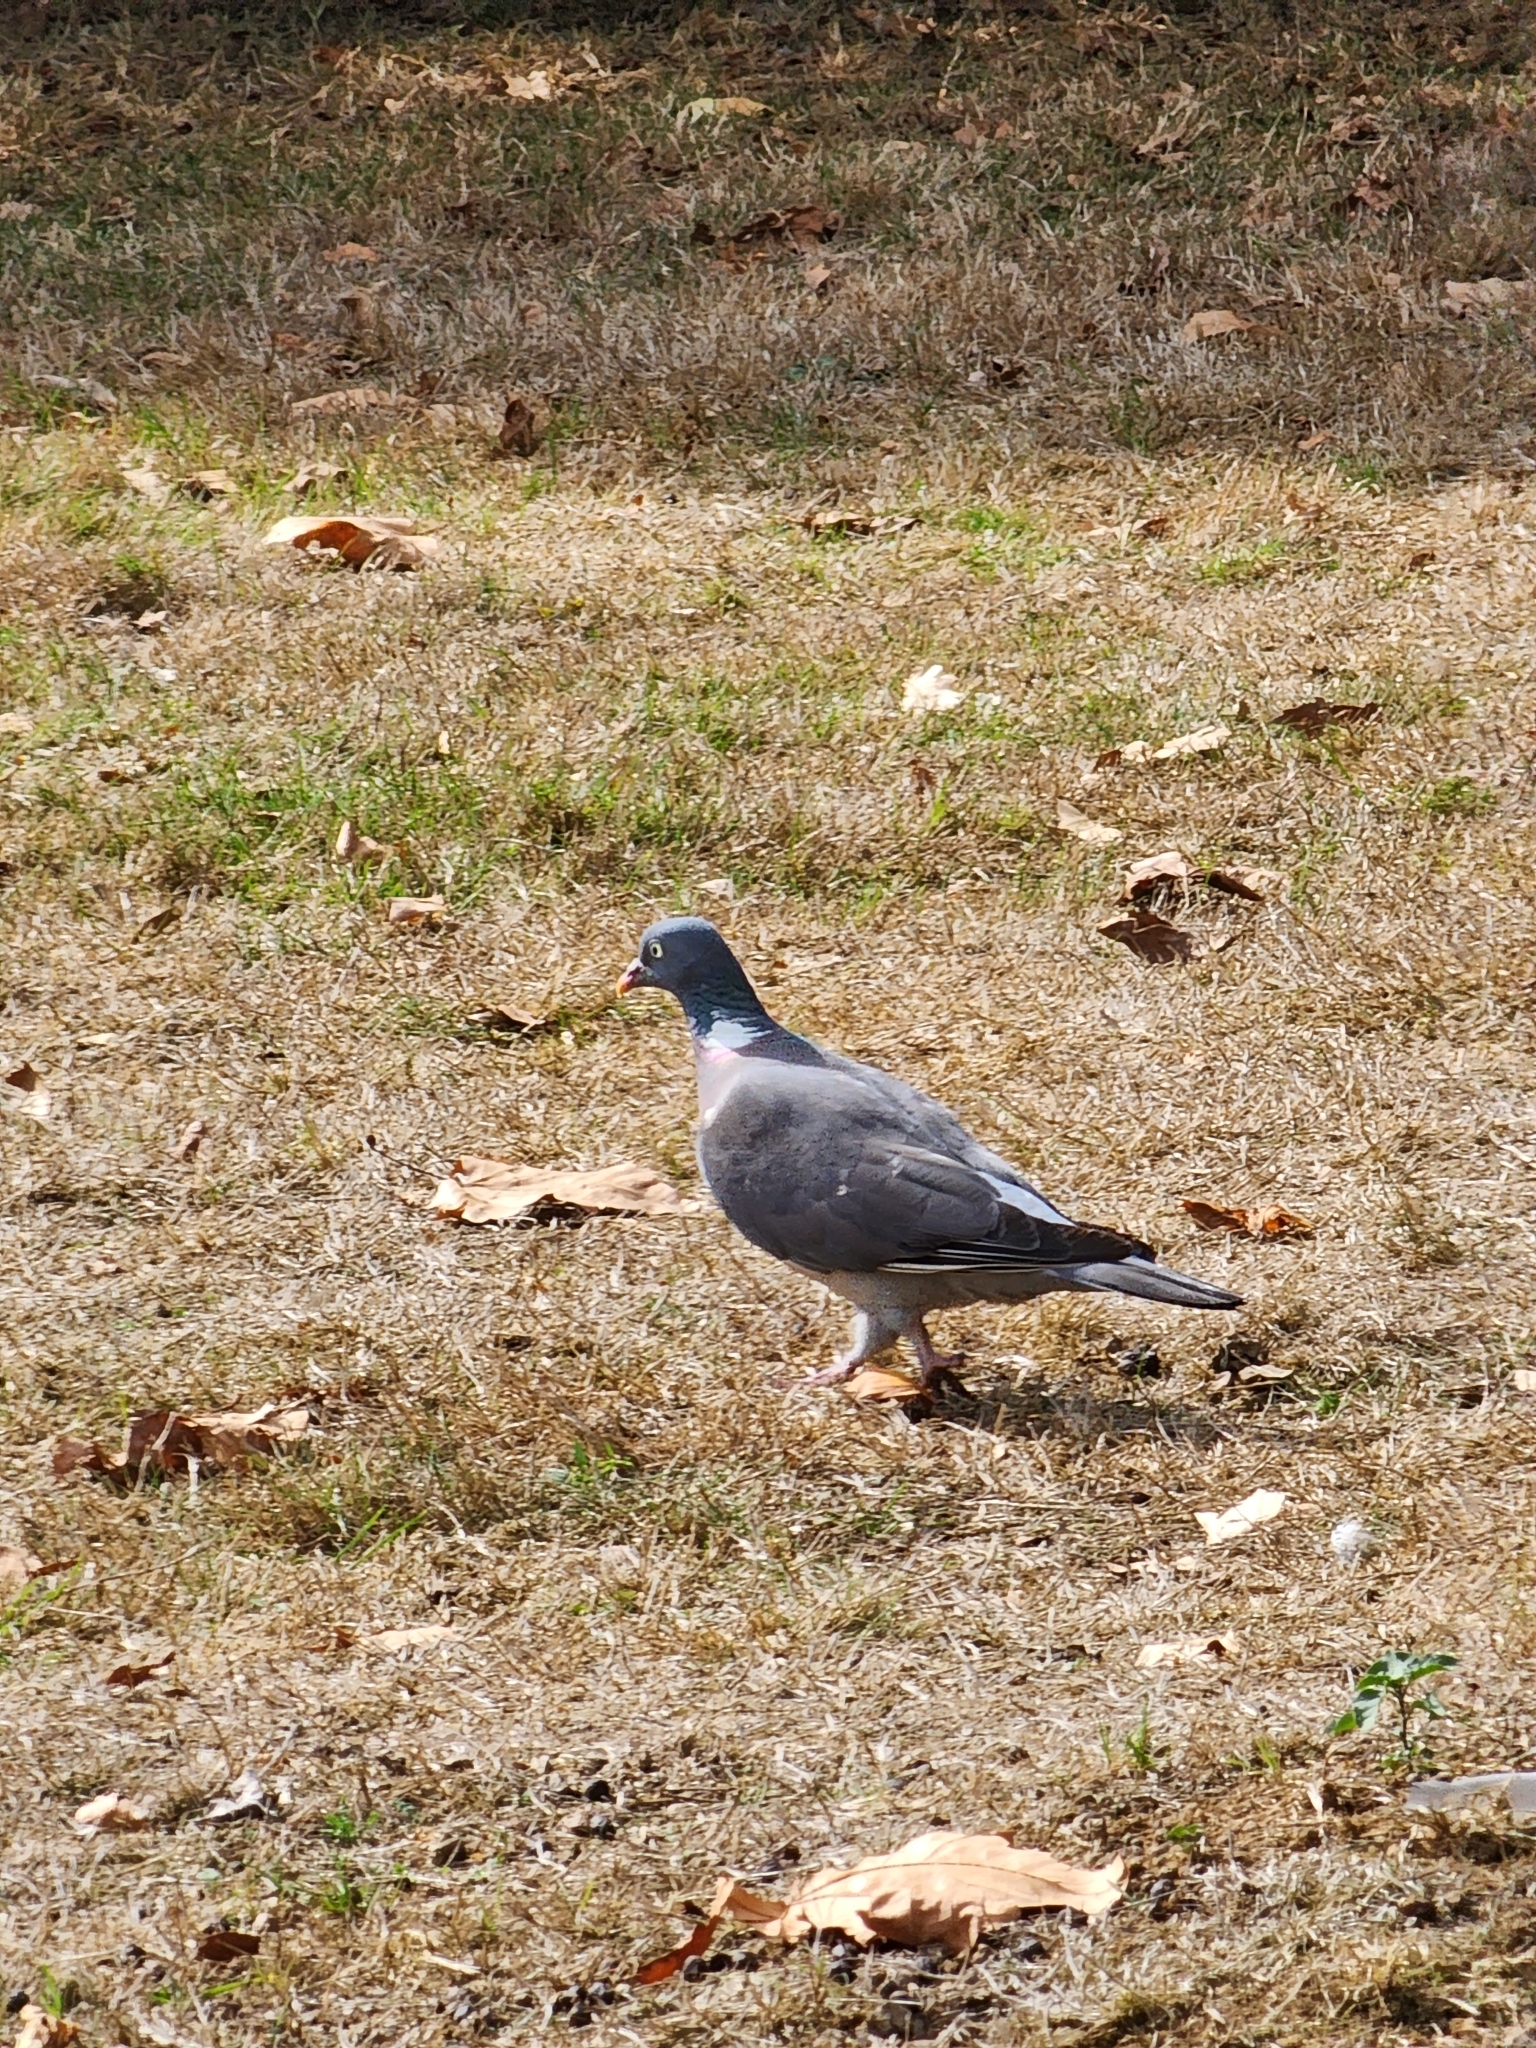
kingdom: Animalia
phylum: Chordata
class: Aves
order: Columbiformes
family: Columbidae
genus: Columba
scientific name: Columba palumbus
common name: Common wood pigeon
